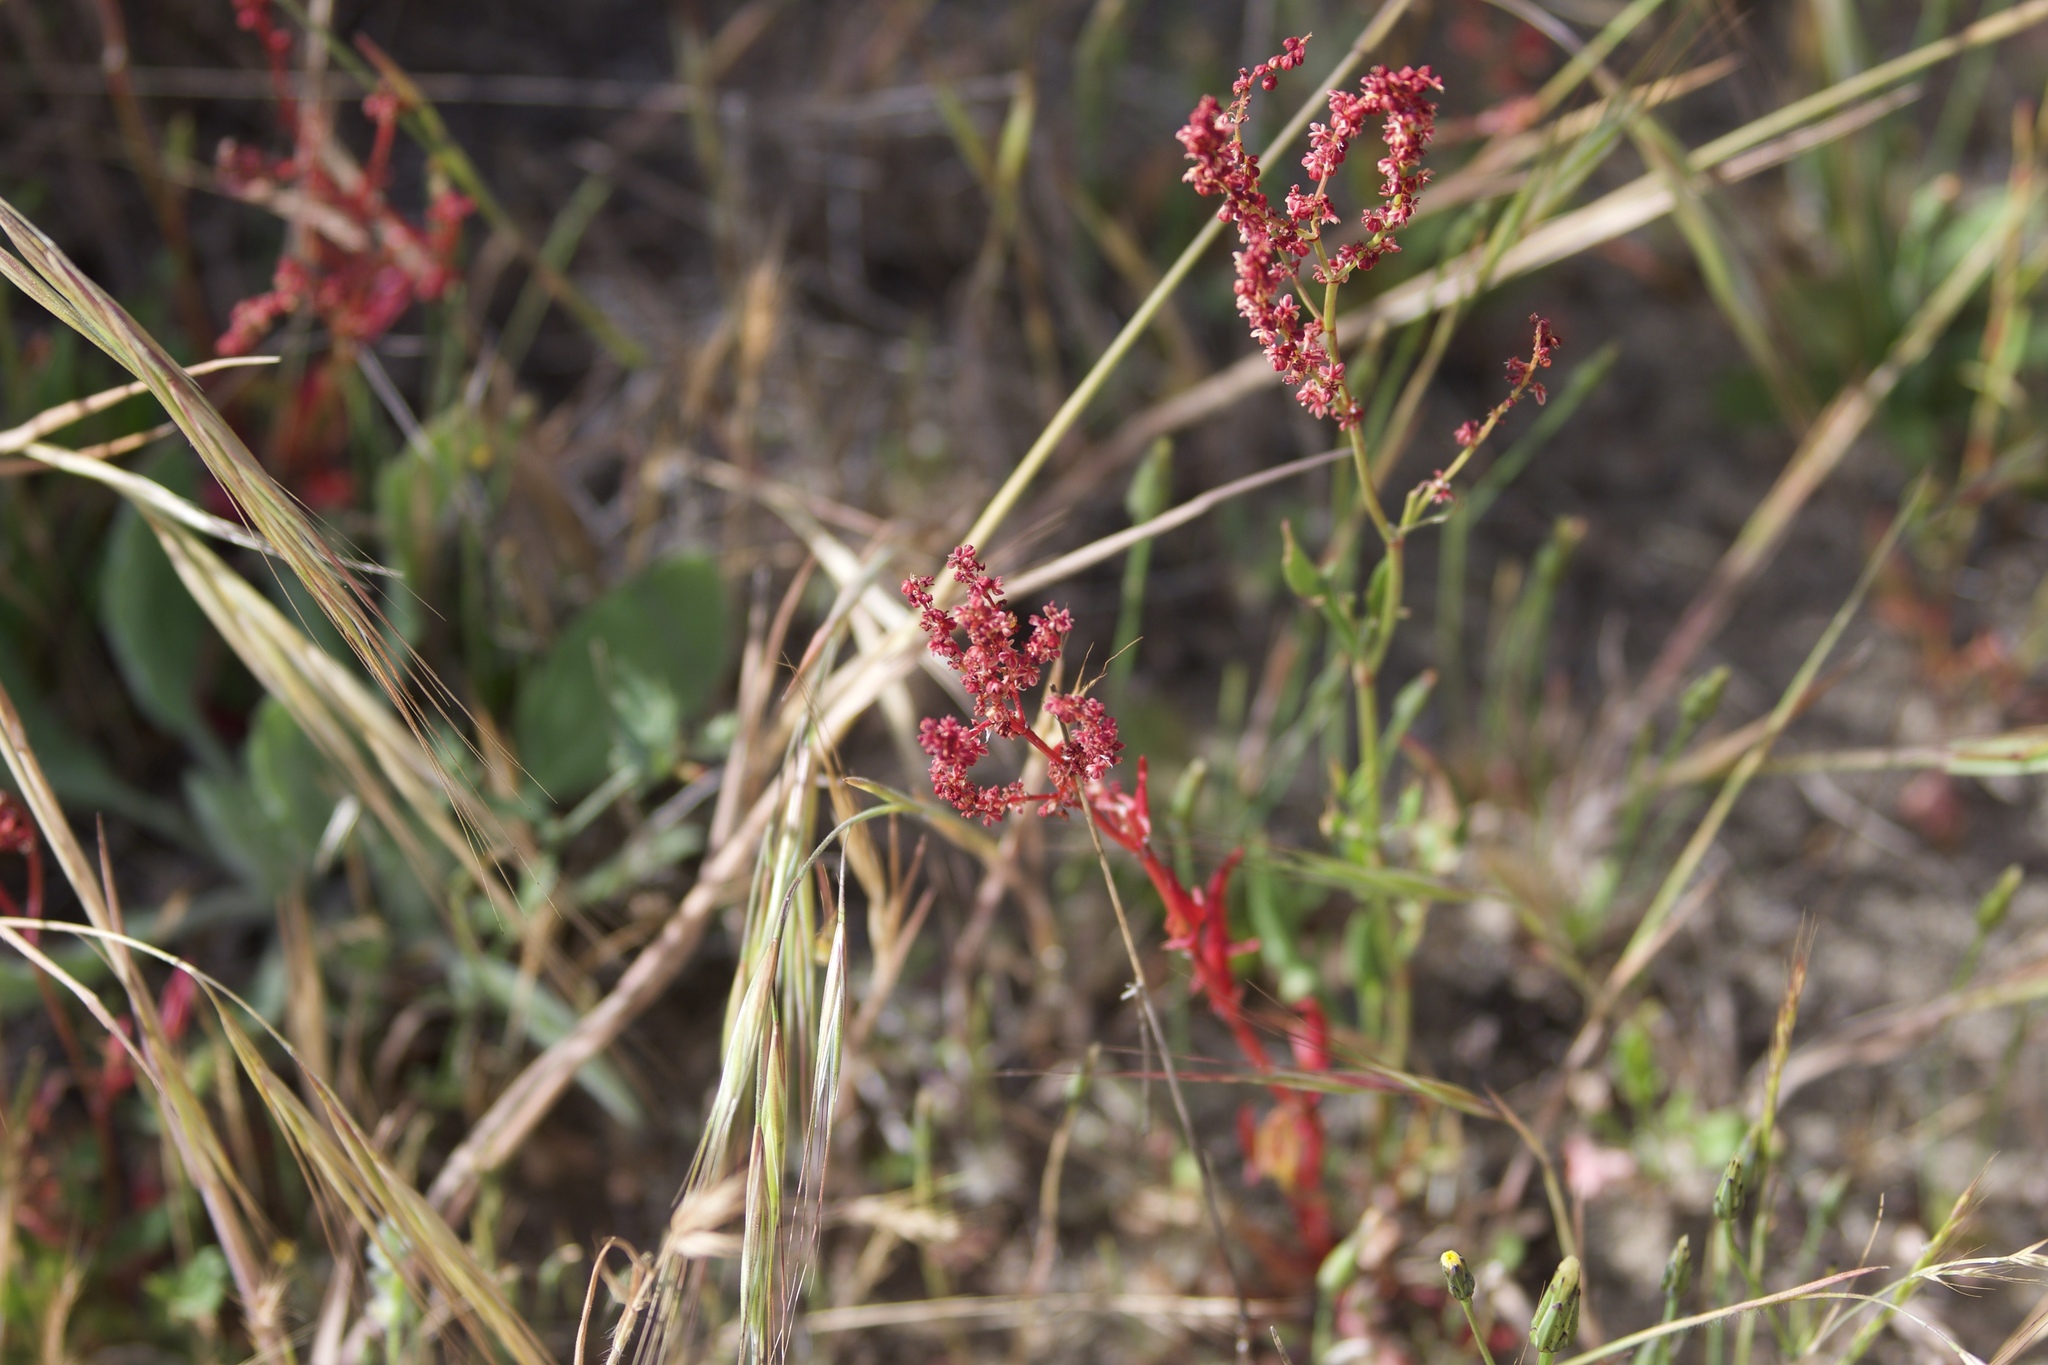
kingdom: Plantae
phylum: Tracheophyta
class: Magnoliopsida
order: Caryophyllales
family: Polygonaceae
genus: Rumex
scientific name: Rumex acetosella
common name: Common sheep sorrel
